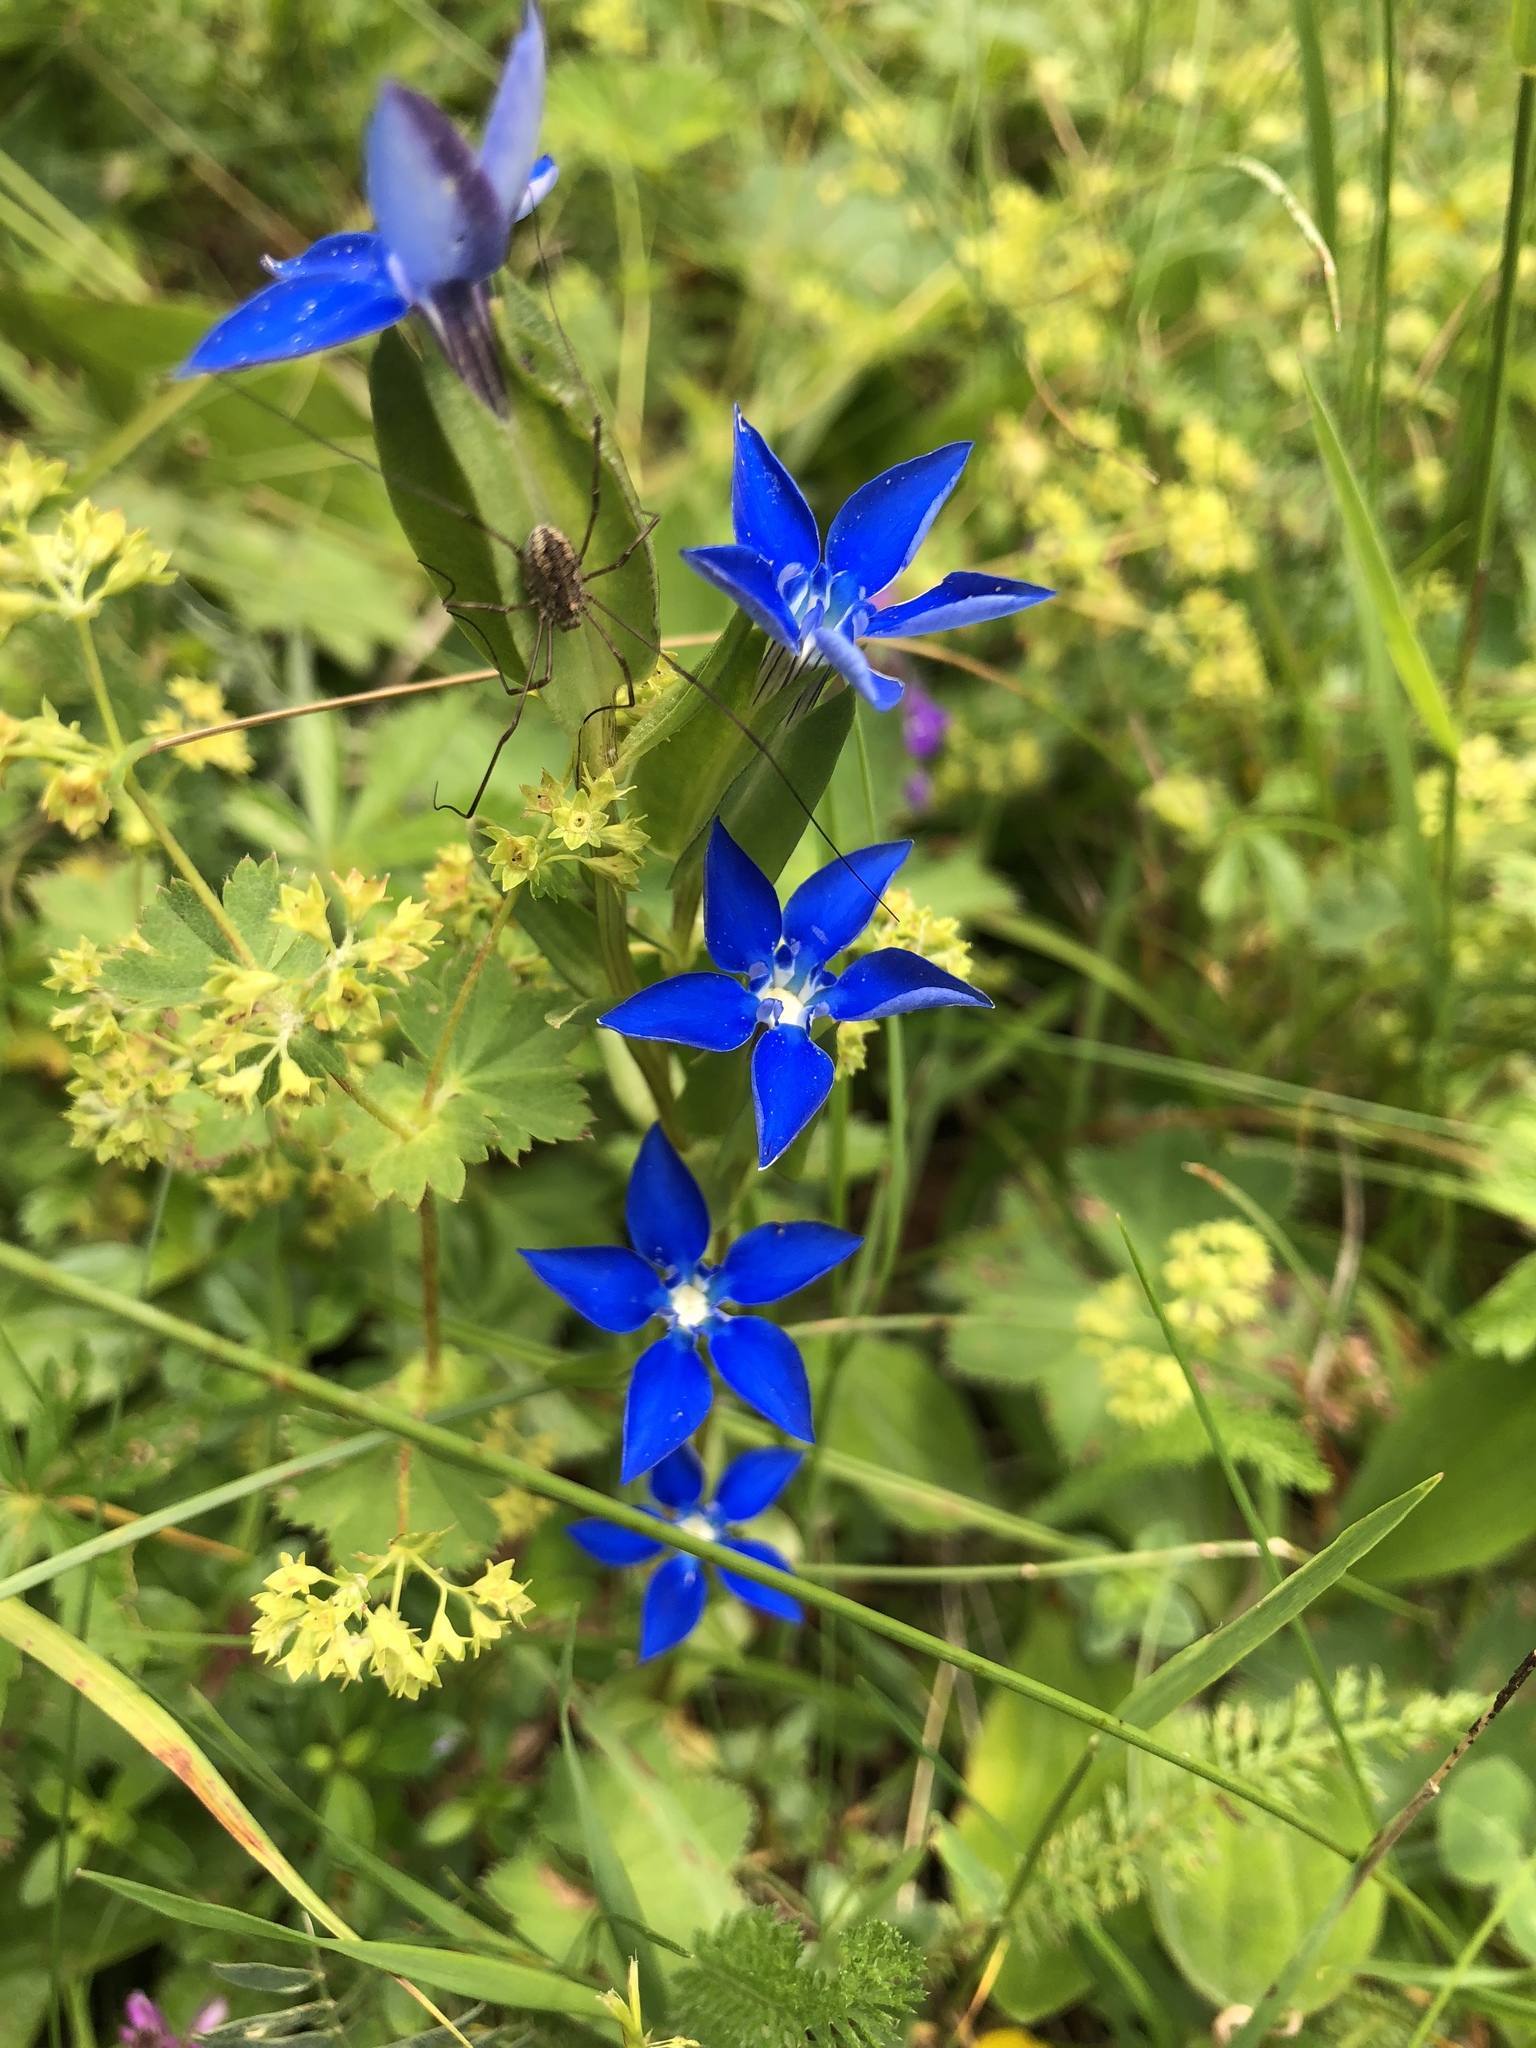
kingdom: Plantae
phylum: Tracheophyta
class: Magnoliopsida
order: Gentianales
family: Gentianaceae
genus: Gentiana
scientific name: Gentiana utriculosa
